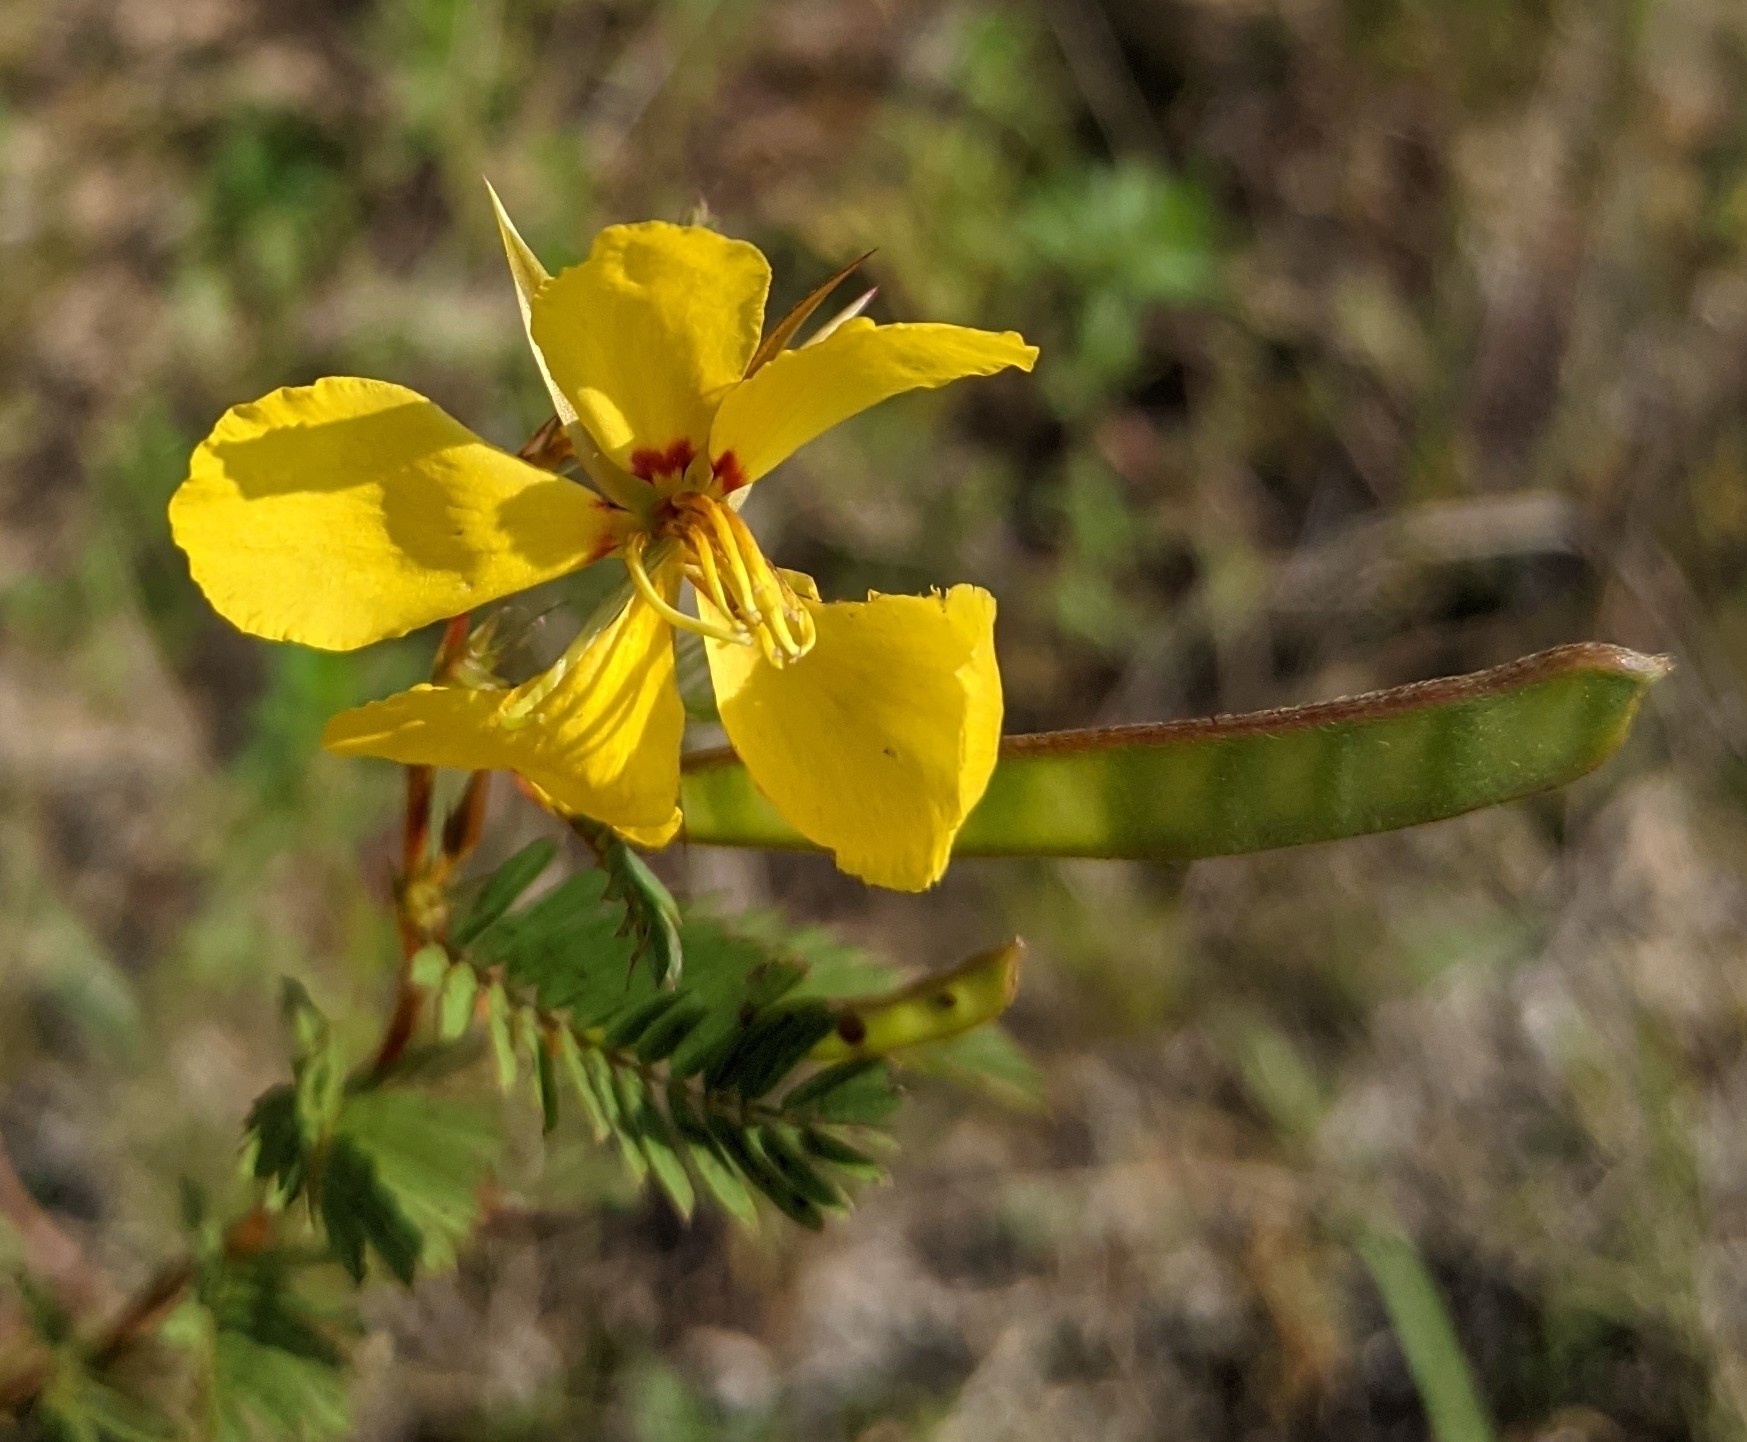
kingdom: Plantae
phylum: Tracheophyta
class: Magnoliopsida
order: Fabales
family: Fabaceae
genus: Chamaecrista
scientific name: Chamaecrista fasciculata
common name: Golden cassia
